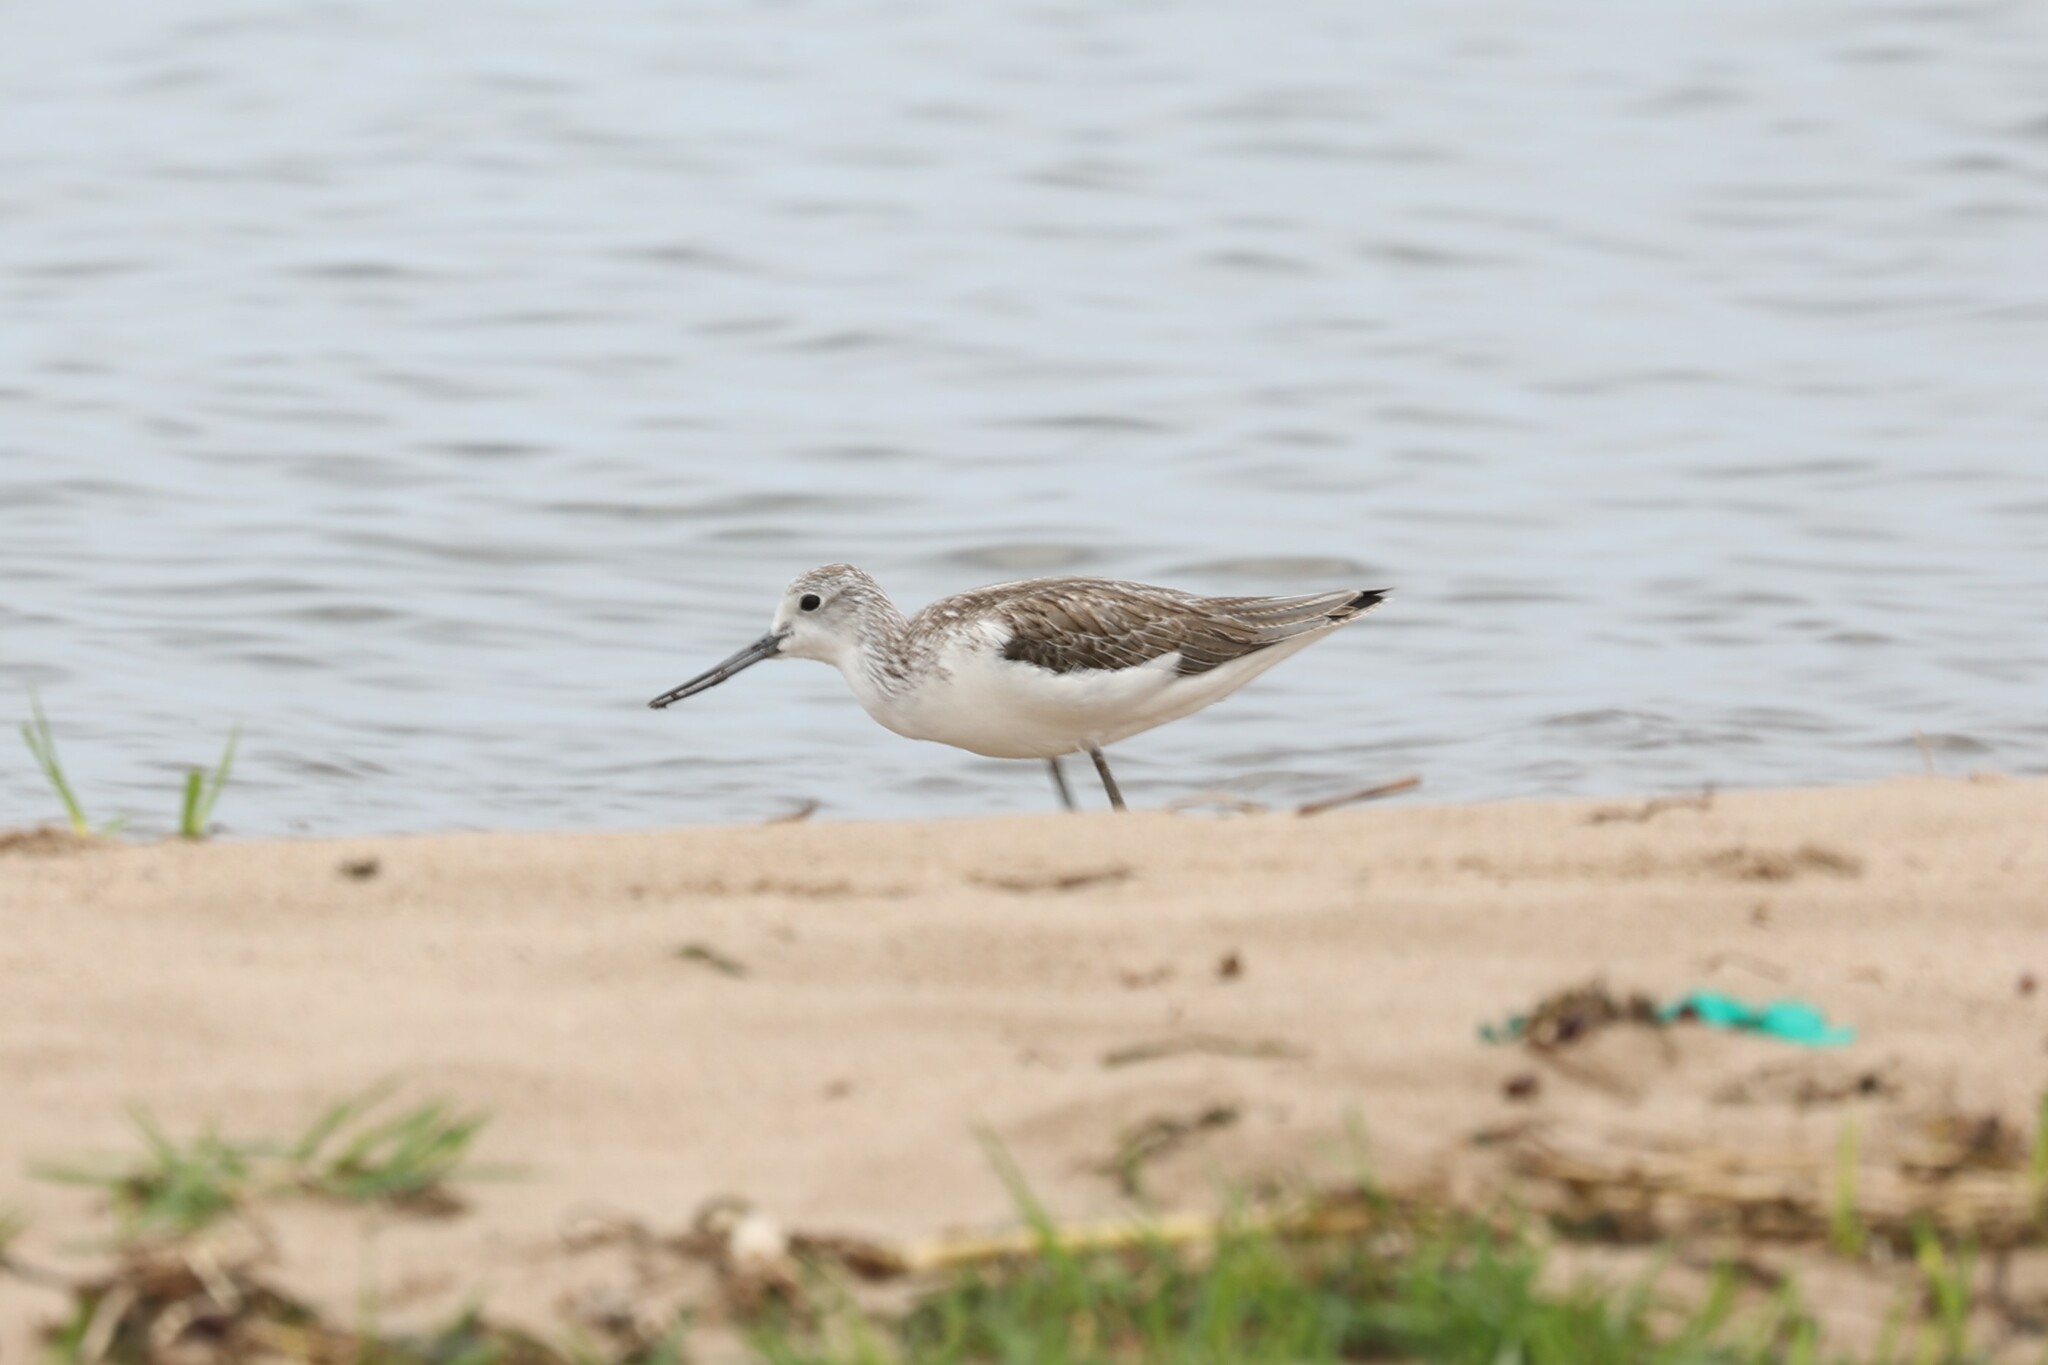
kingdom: Animalia
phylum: Chordata
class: Aves
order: Charadriiformes
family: Scolopacidae
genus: Tringa
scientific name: Tringa nebularia
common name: Common greenshank
